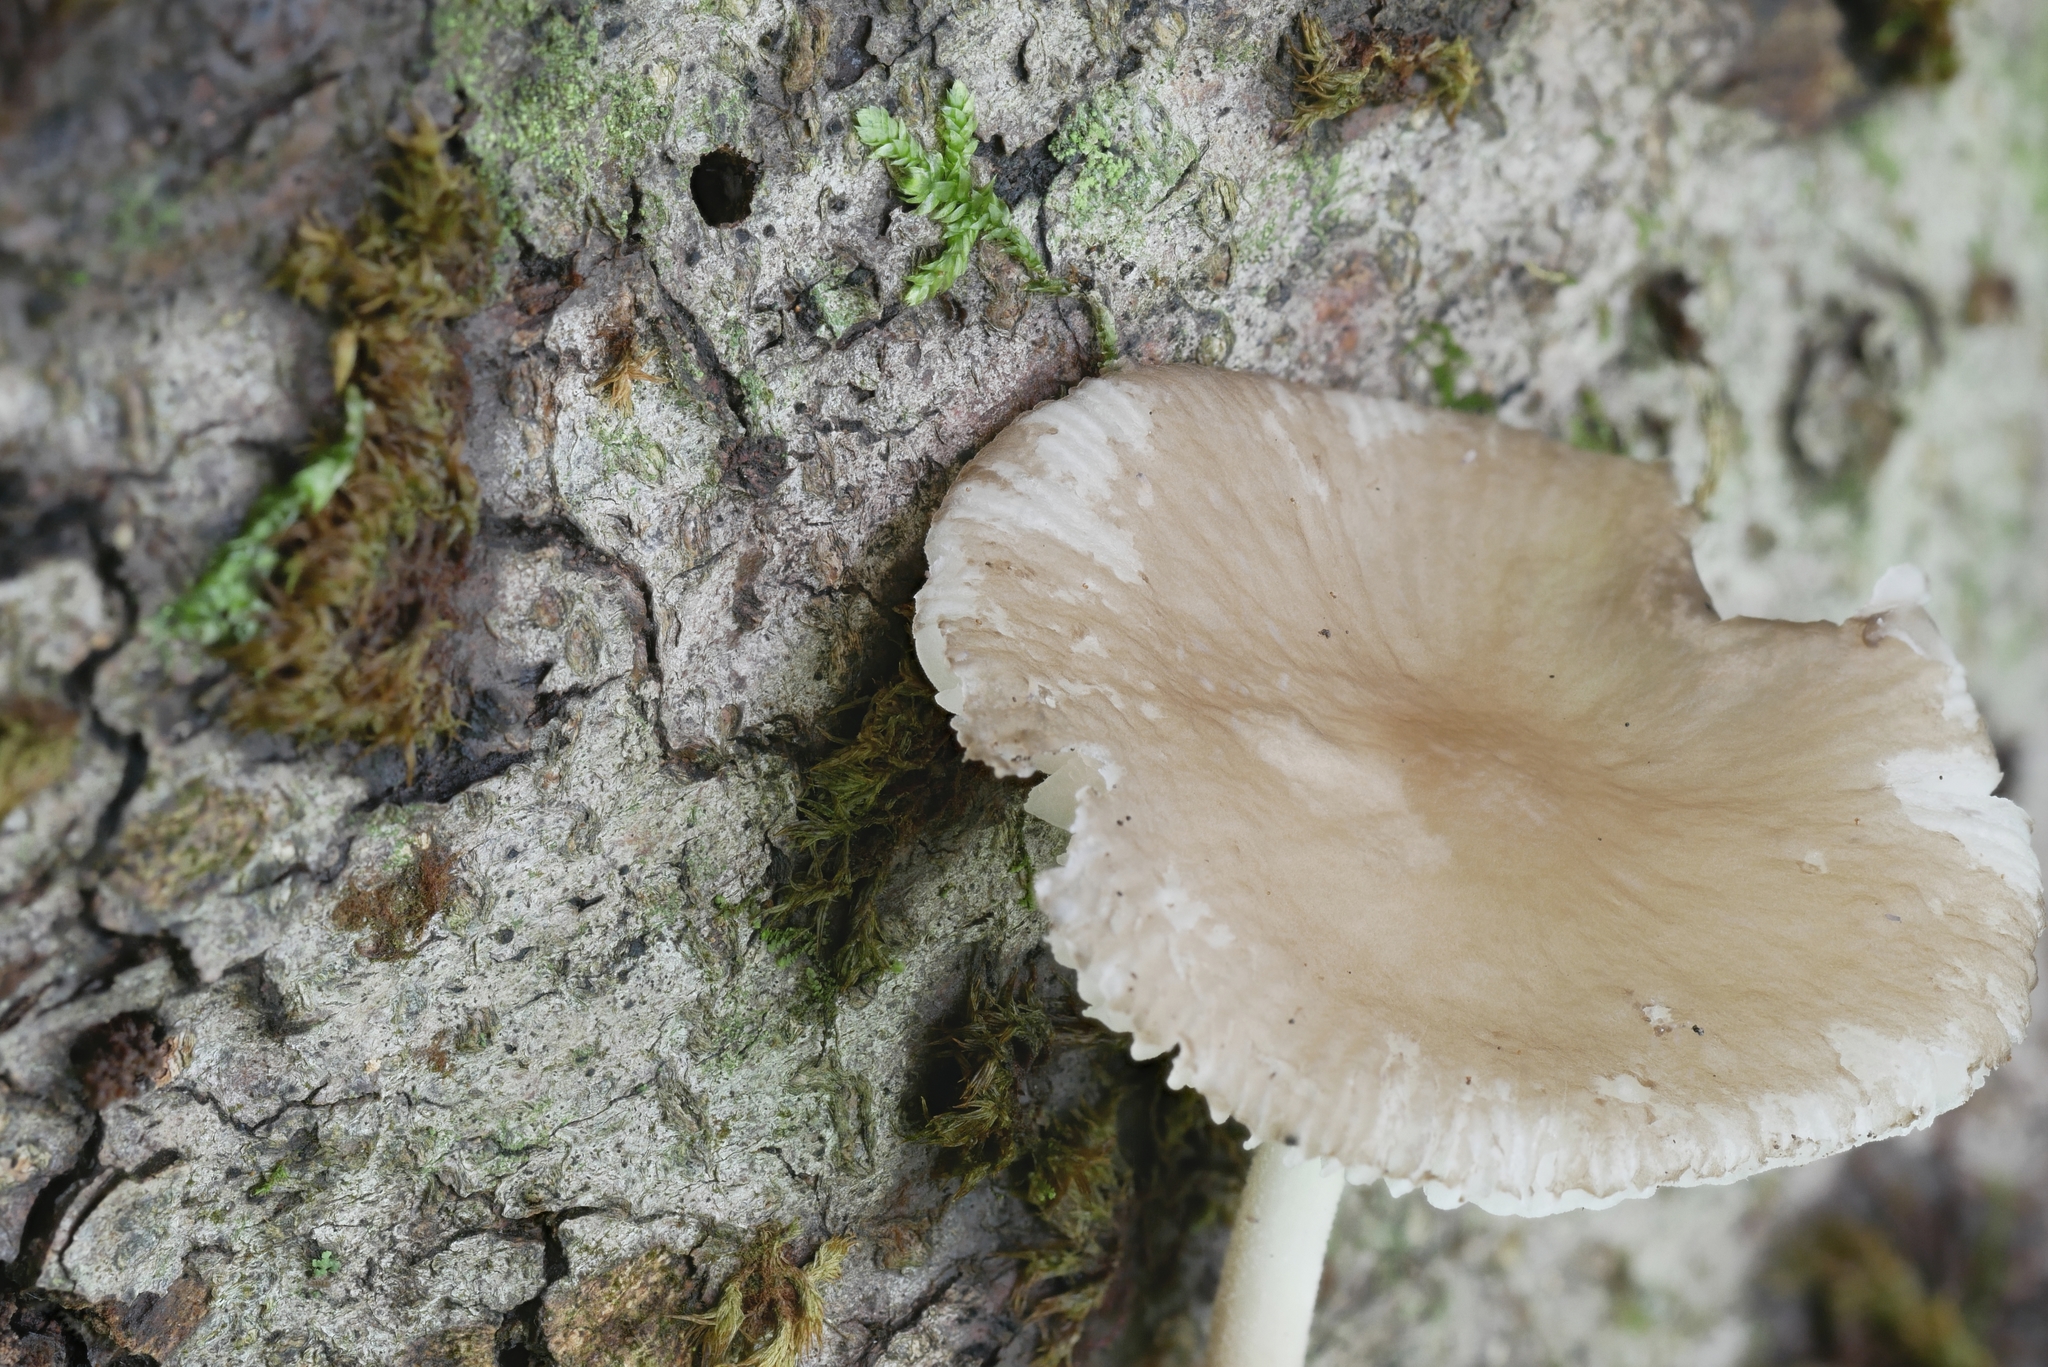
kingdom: Fungi
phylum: Basidiomycota
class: Agaricomycetes
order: Agaricales
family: Physalacriaceae
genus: Hymenopellis
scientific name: Hymenopellis furfuracea
